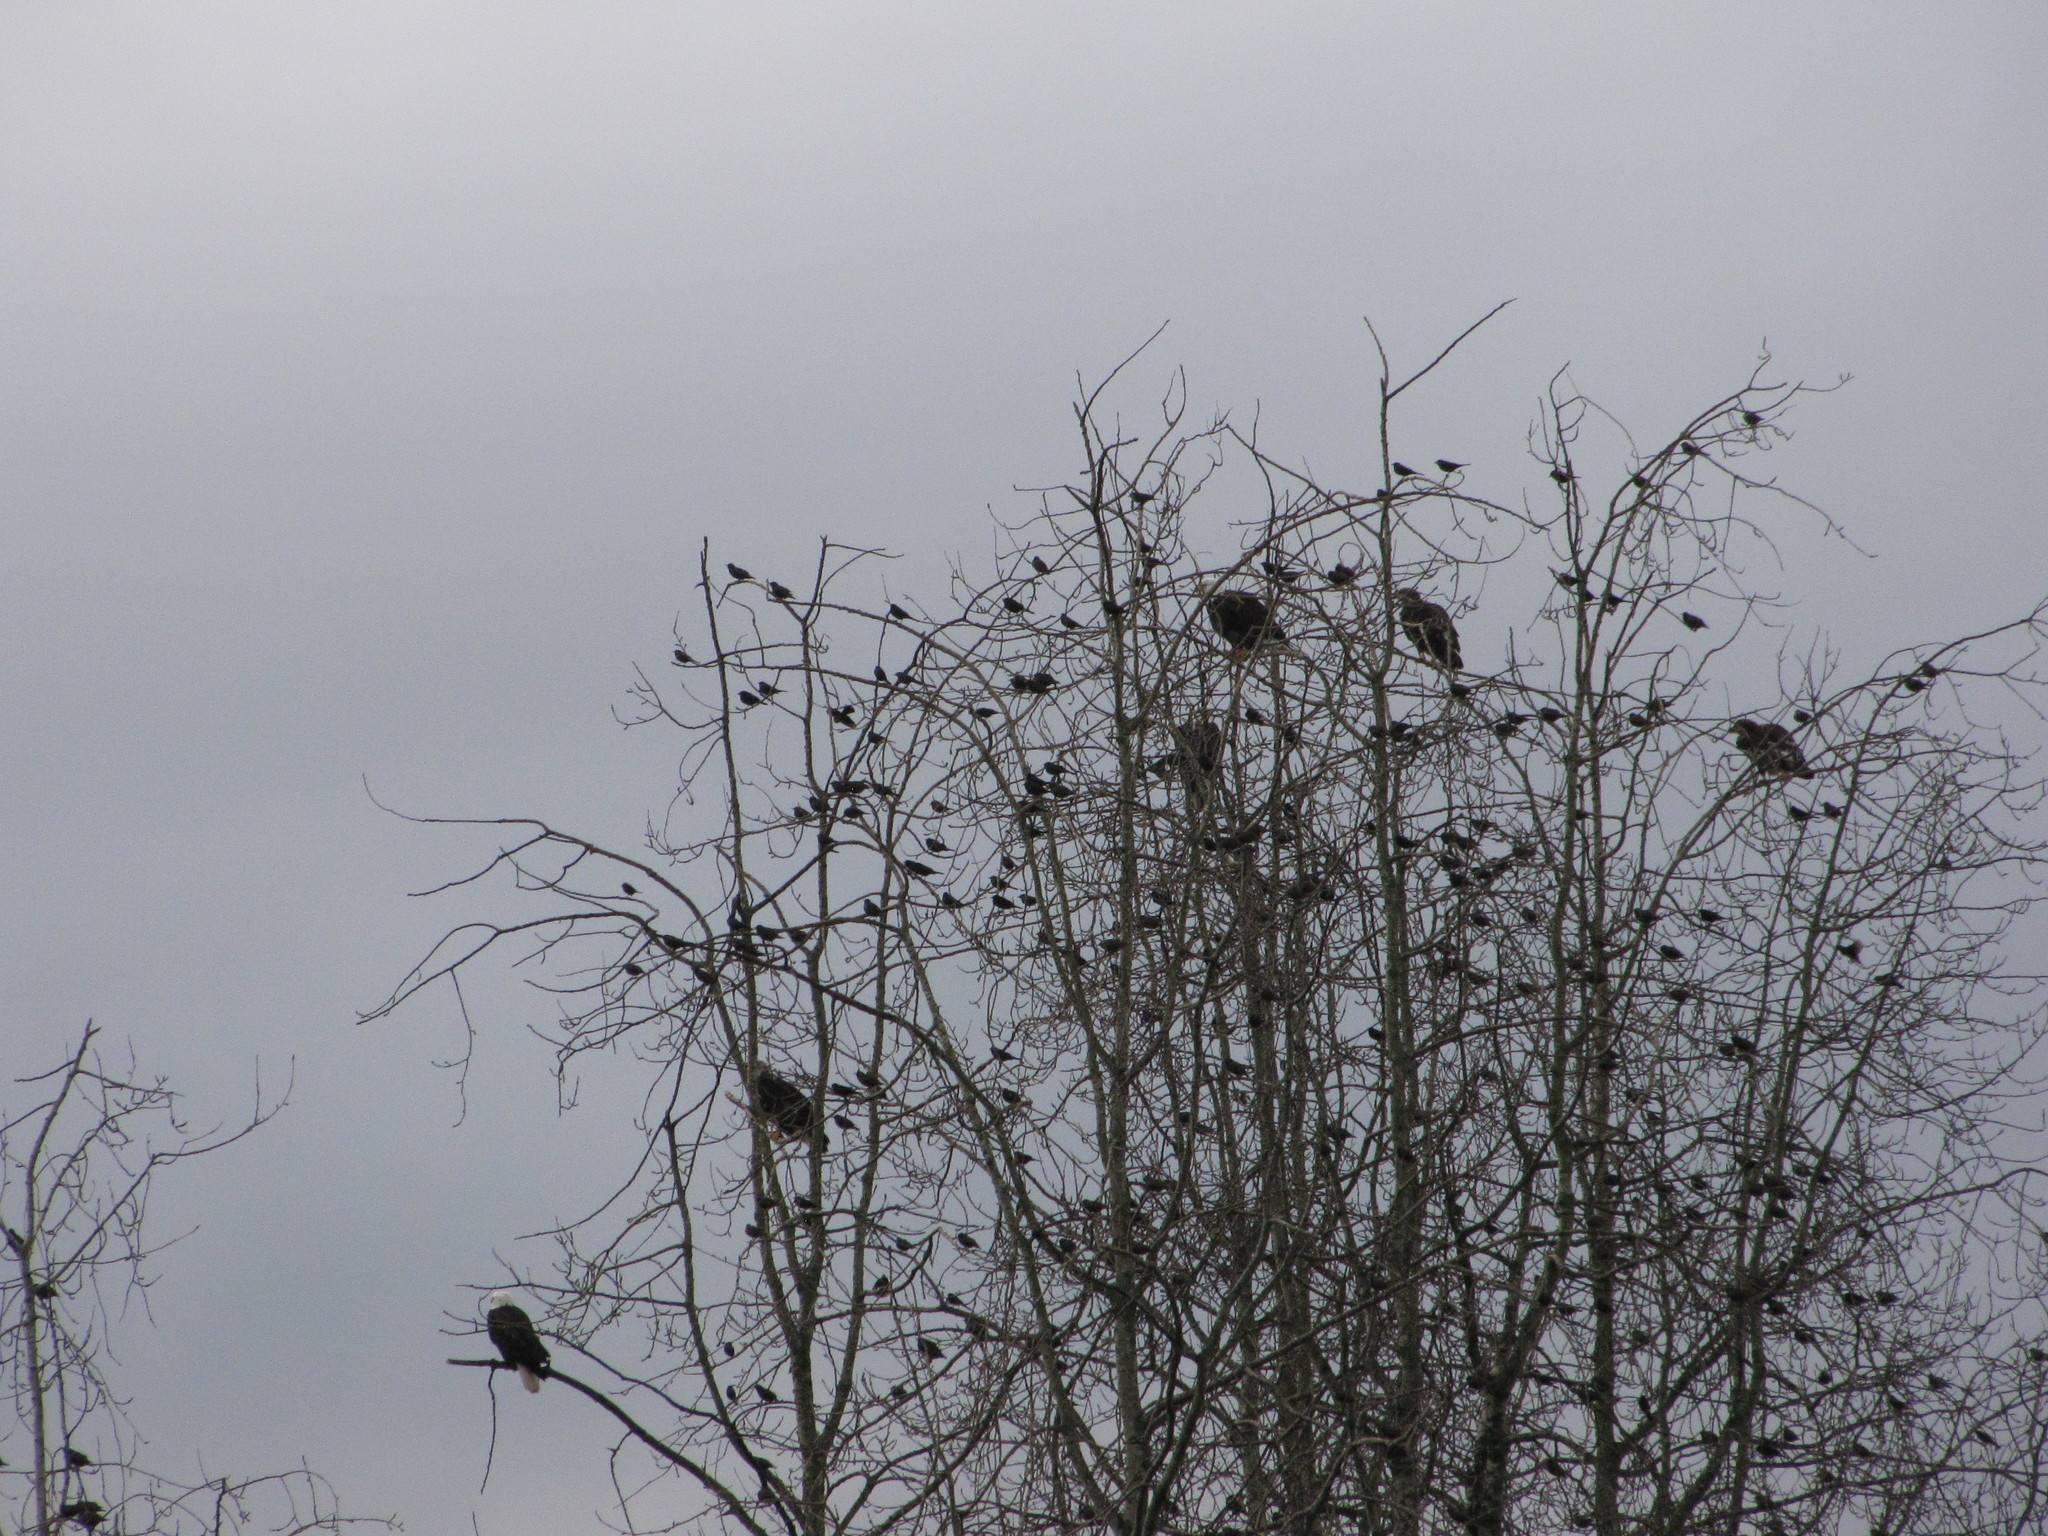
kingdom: Animalia
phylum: Chordata
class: Aves
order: Accipitriformes
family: Accipitridae
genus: Haliaeetus
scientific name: Haliaeetus leucocephalus
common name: Bald eagle
